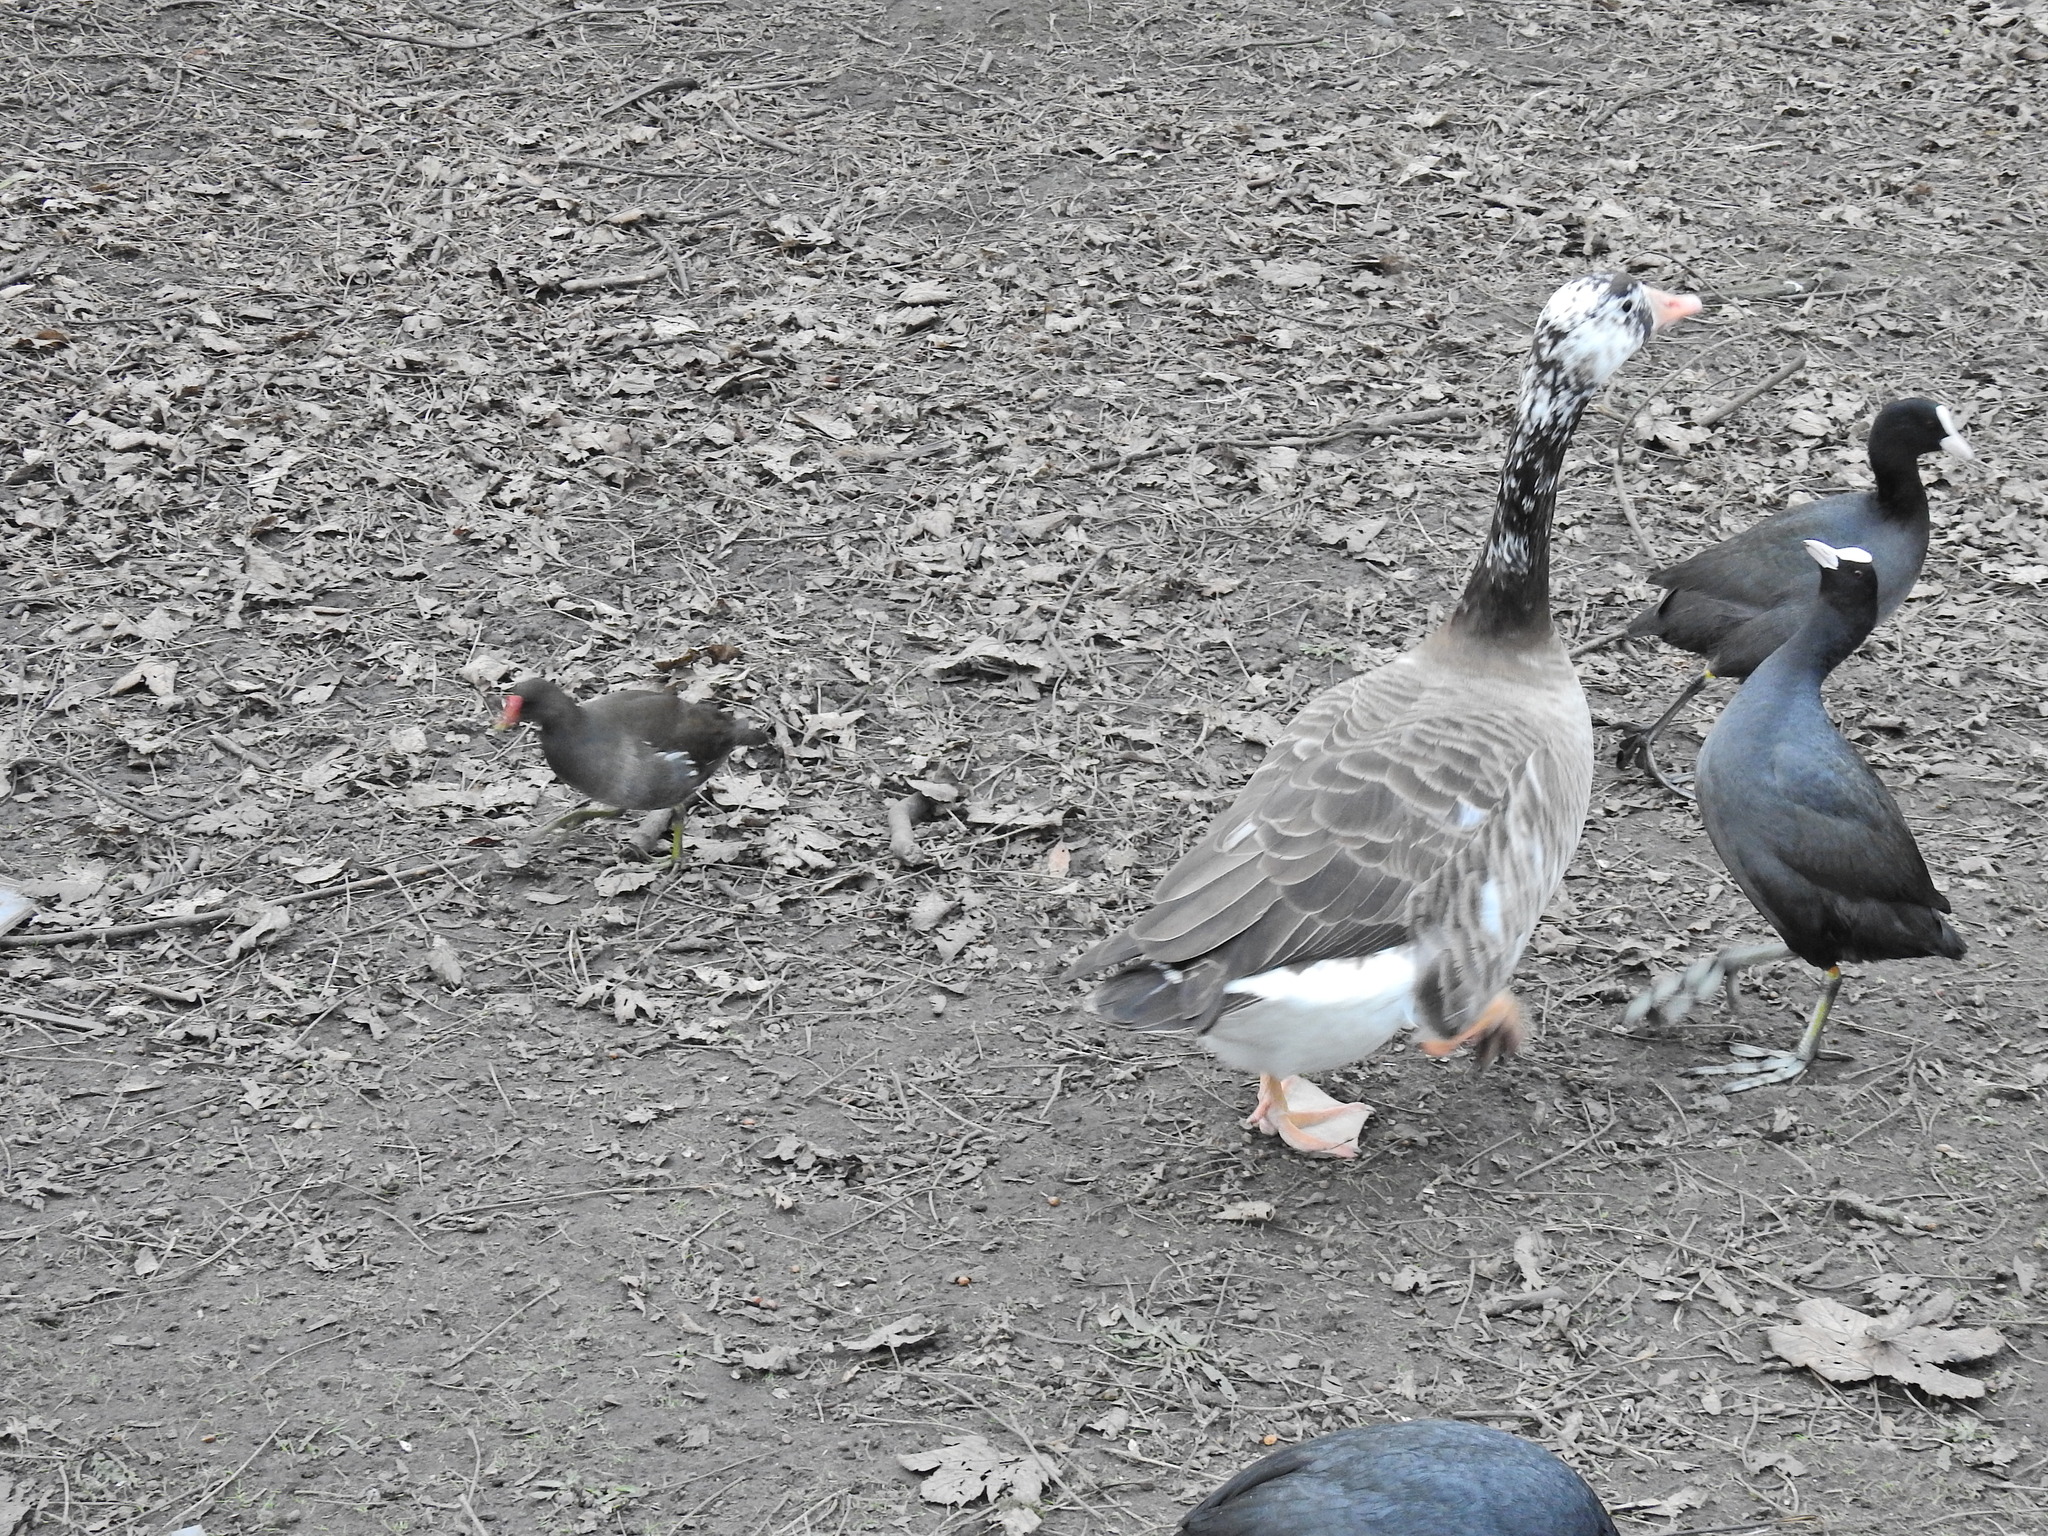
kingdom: Animalia
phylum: Chordata
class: Aves
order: Anseriformes
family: Anatidae
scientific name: Anatidae
